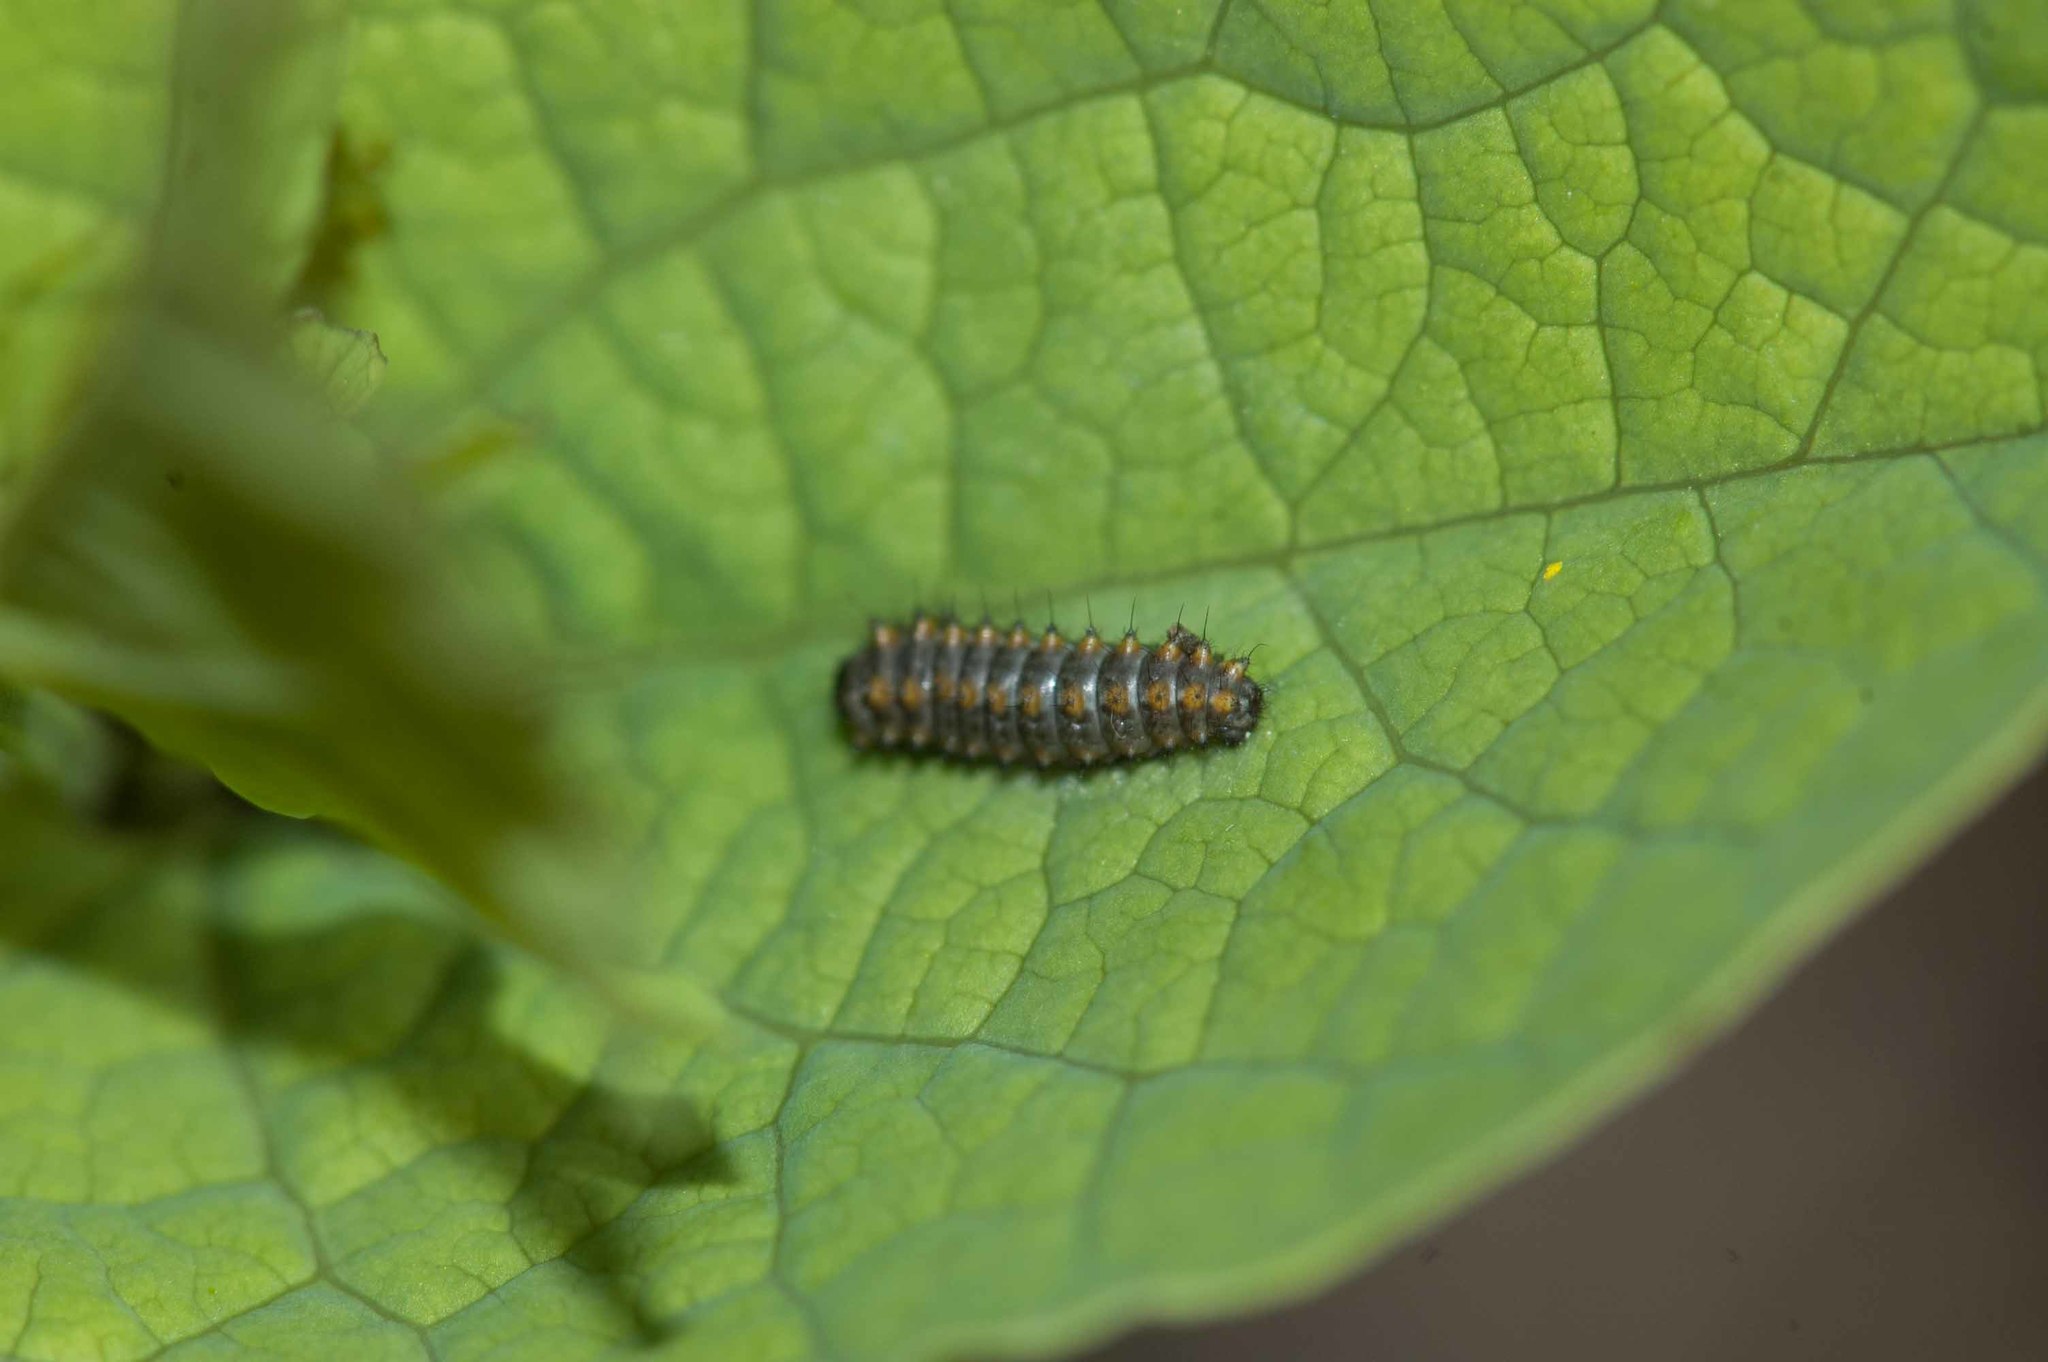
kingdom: Animalia
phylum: Arthropoda
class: Insecta
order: Lepidoptera
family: Papilionidae
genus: Zerynthia
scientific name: Zerynthia polyxena
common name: Southern festoon
